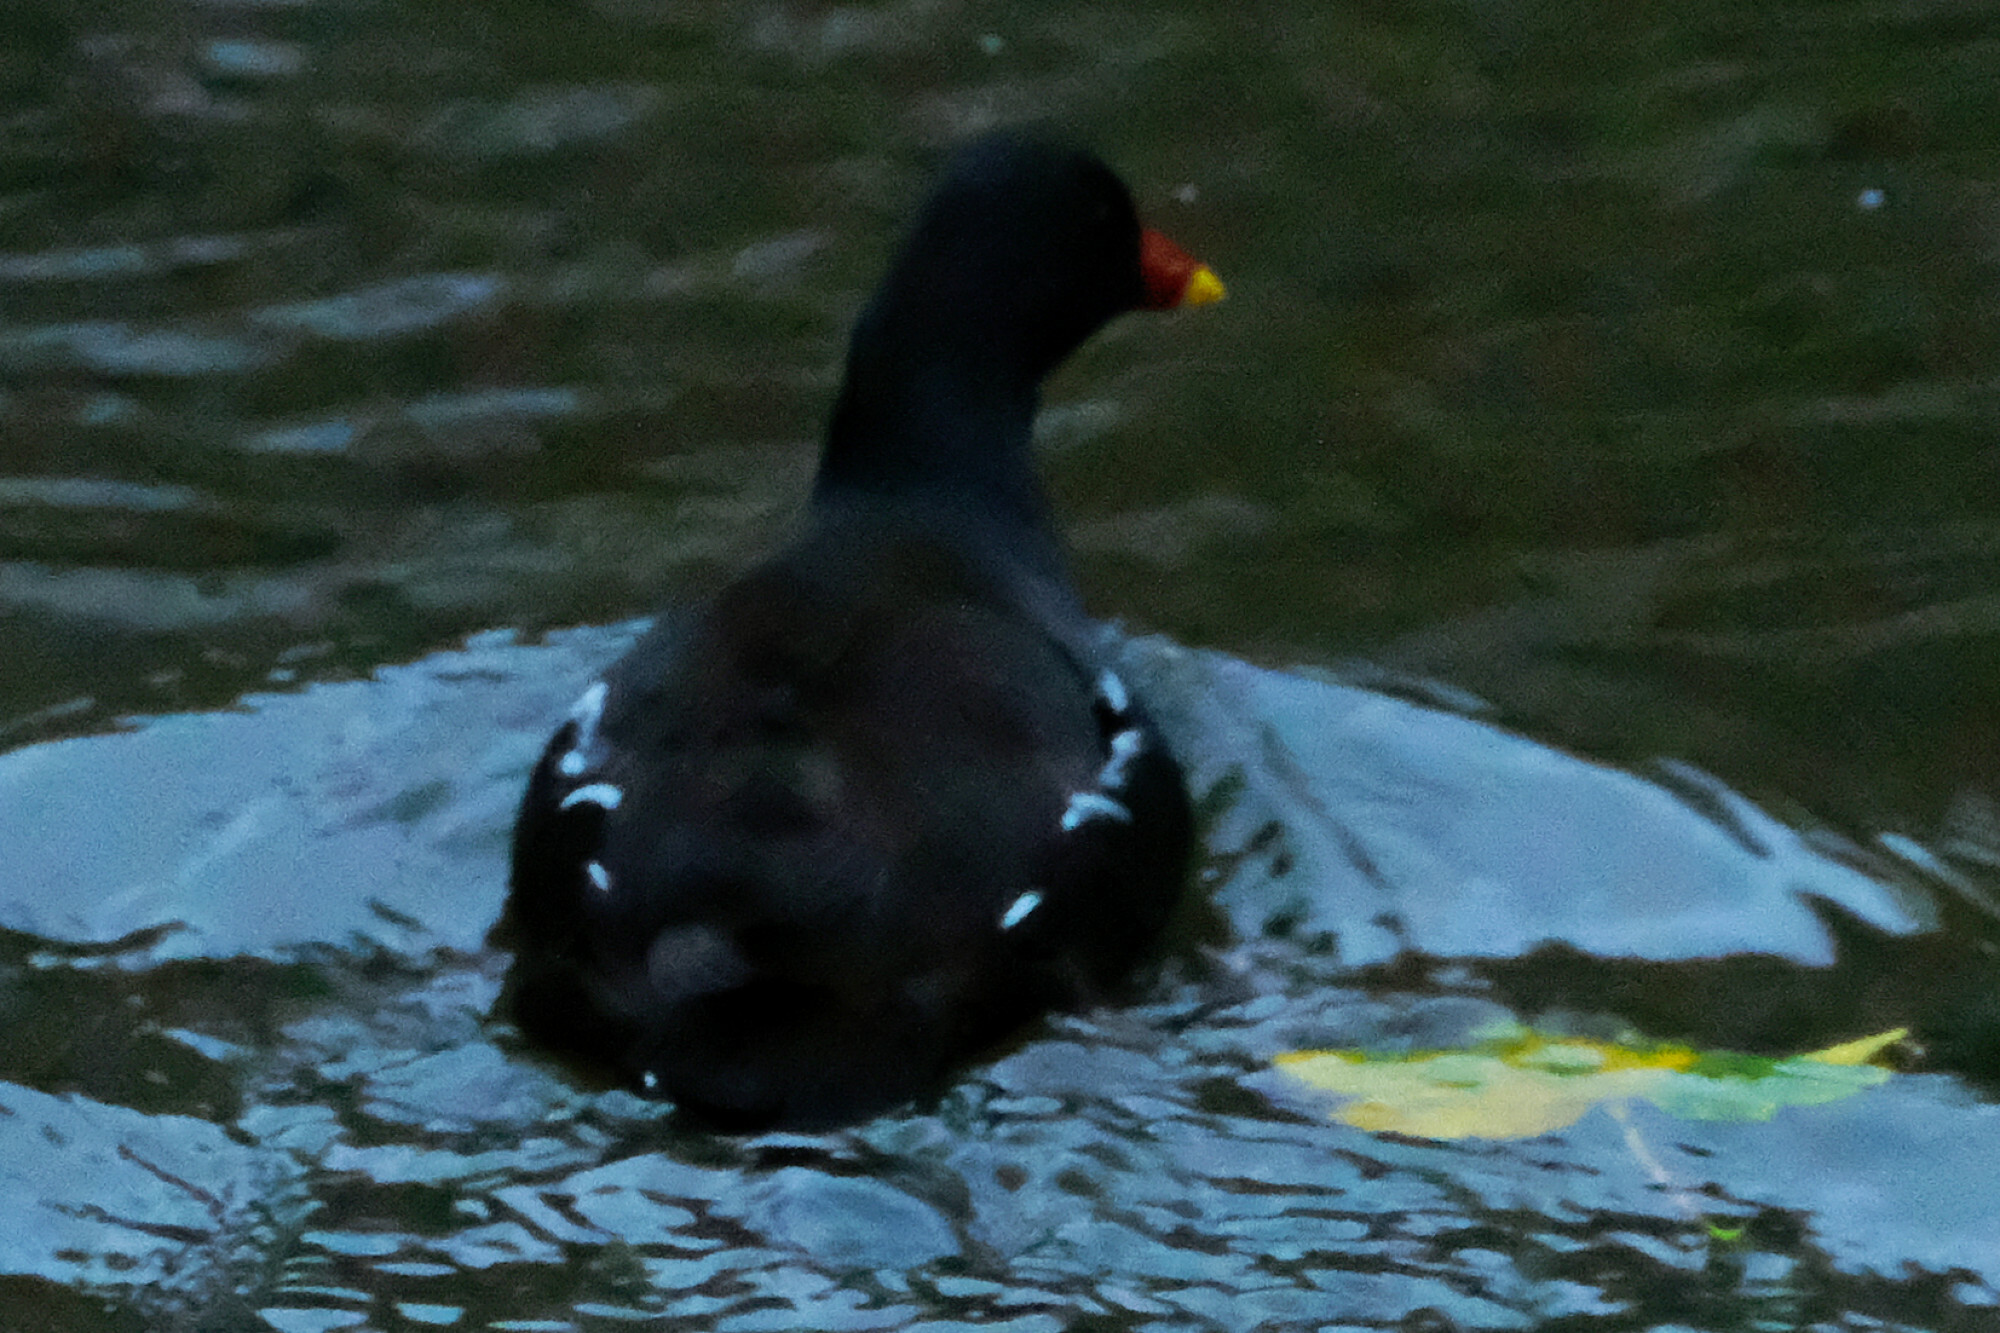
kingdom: Animalia
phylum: Chordata
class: Aves
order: Gruiformes
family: Rallidae
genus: Gallinula
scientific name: Gallinula chloropus
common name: Common moorhen
